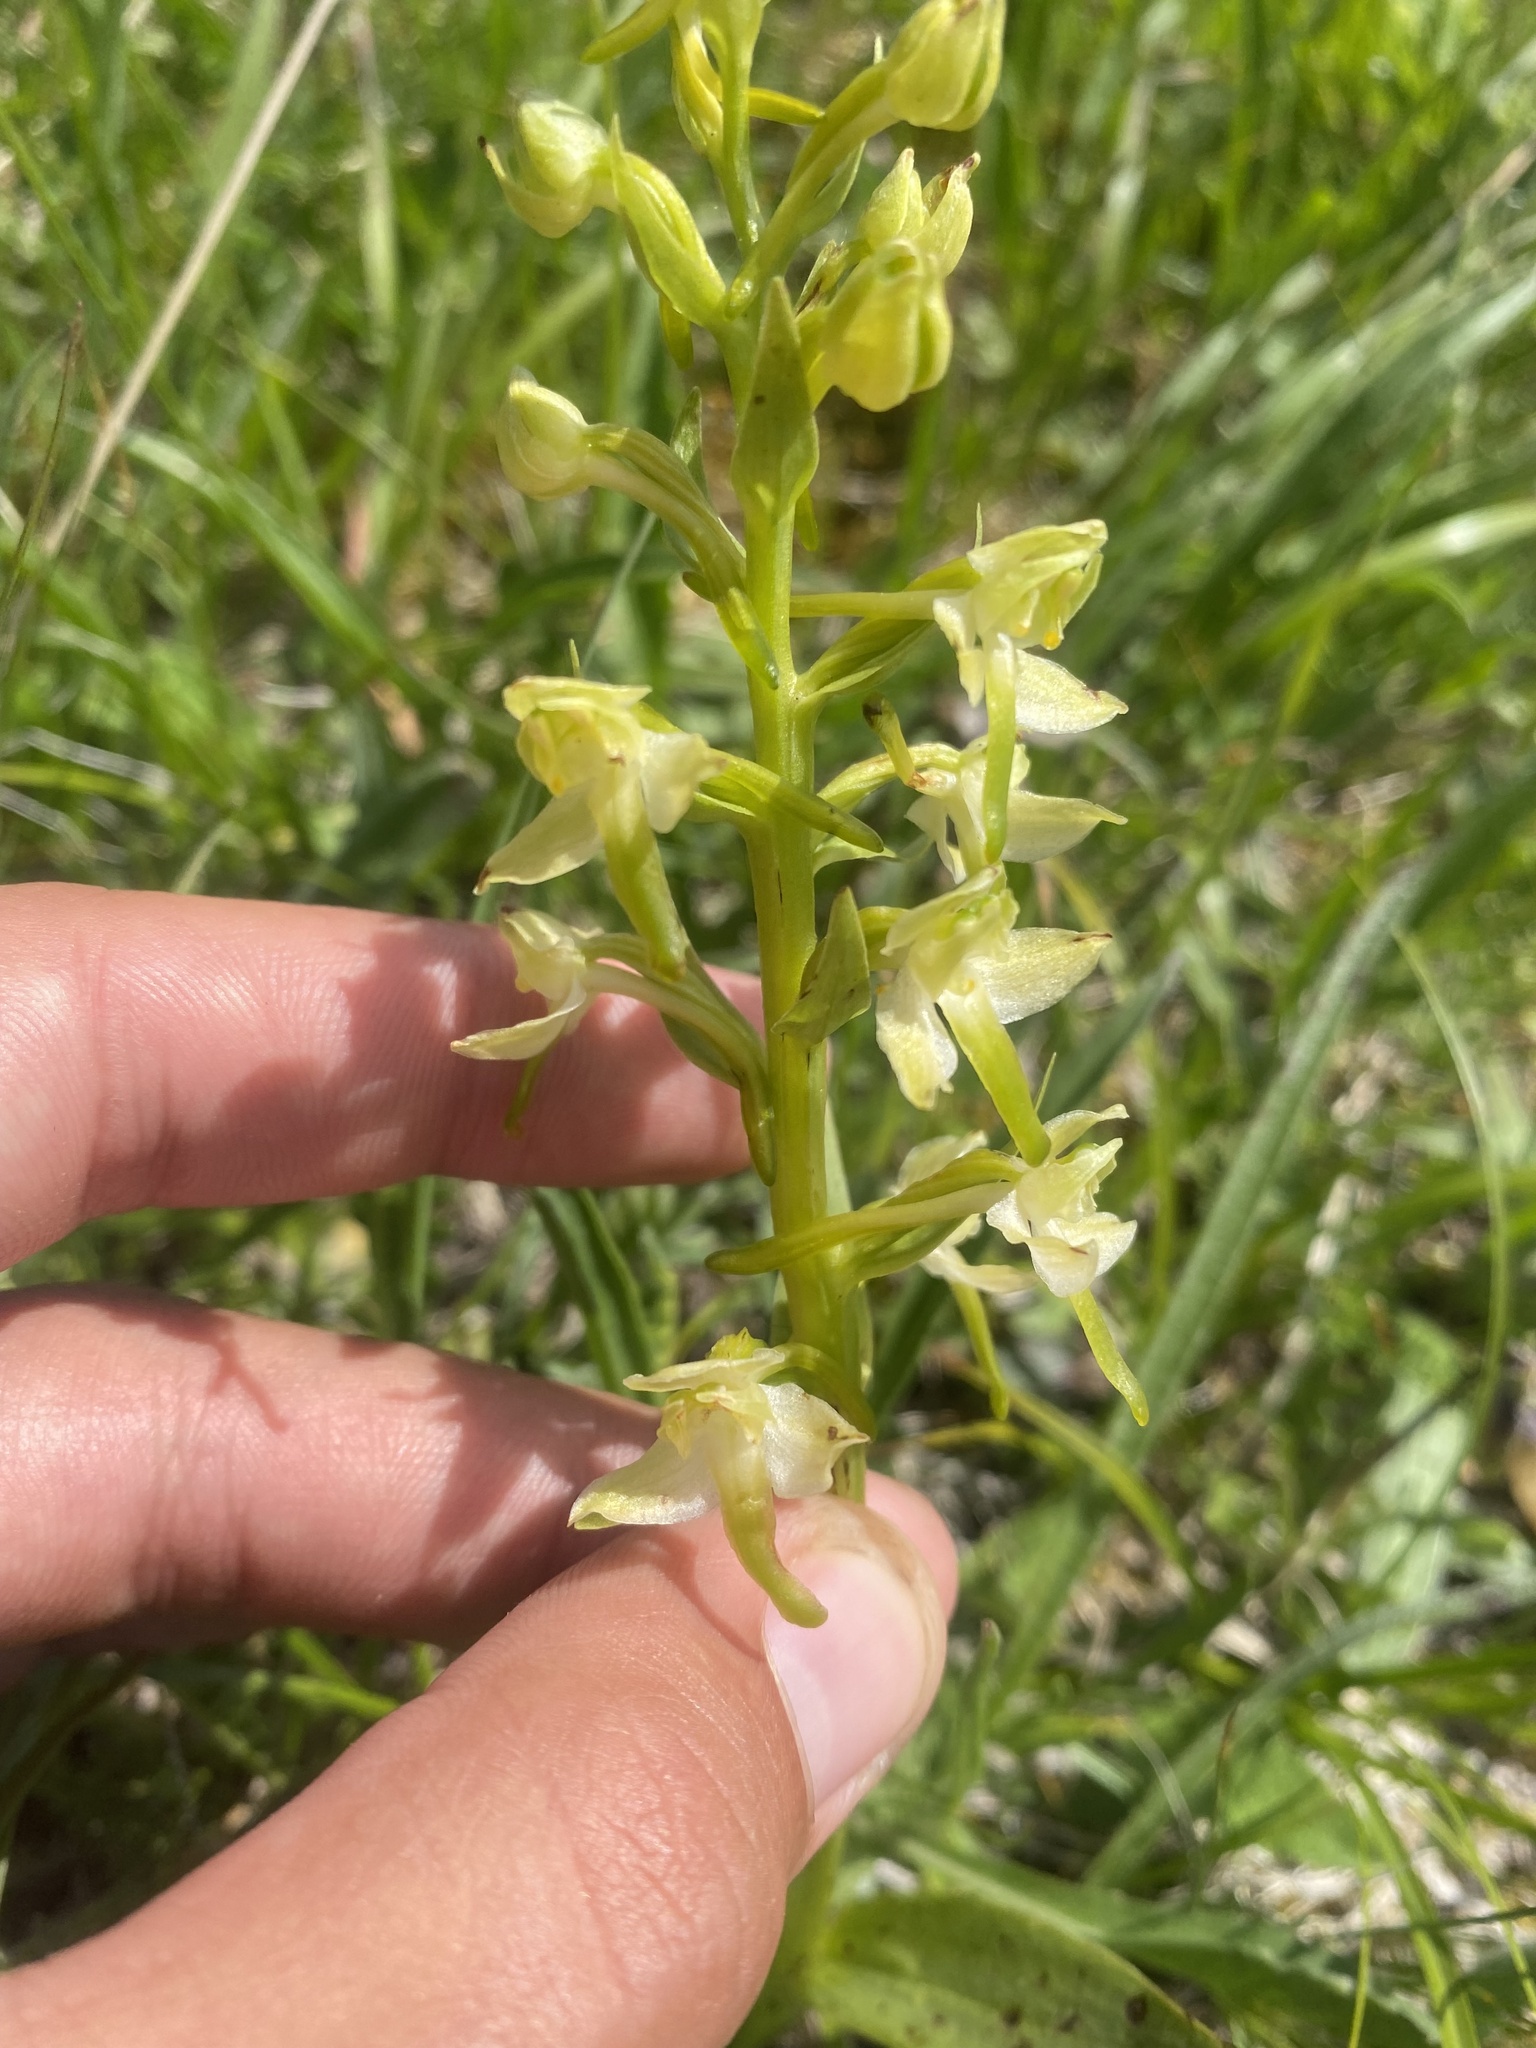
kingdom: Plantae
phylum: Tracheophyta
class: Liliopsida
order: Asparagales
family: Orchidaceae
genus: Platanthera
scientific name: Platanthera chlorantha
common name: Greater butterfly-orchid
